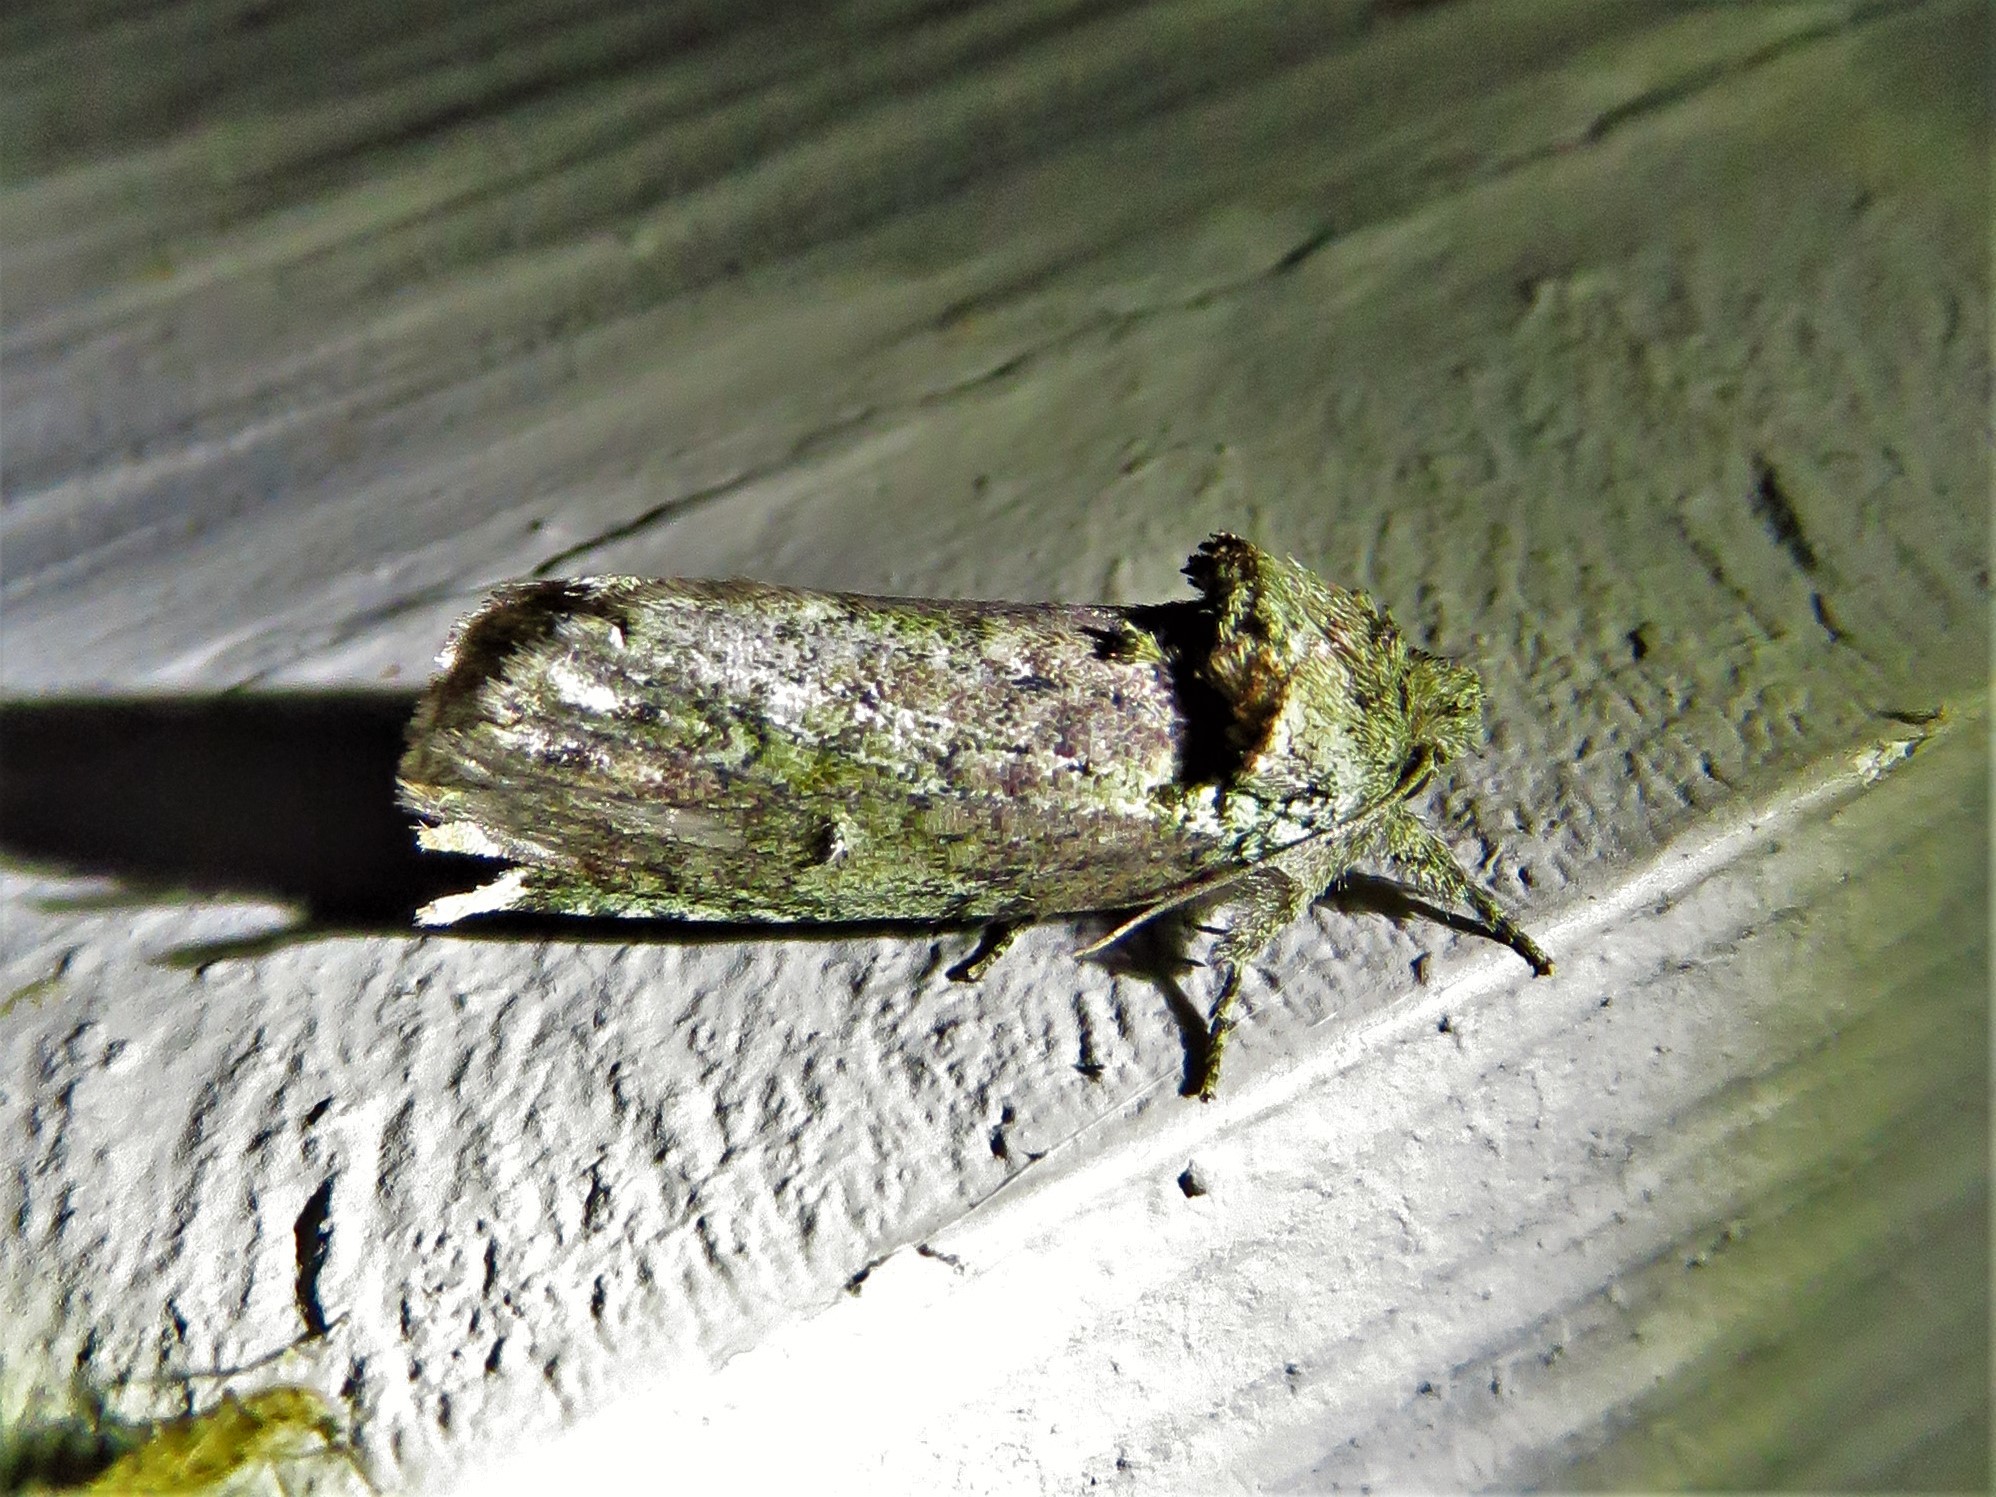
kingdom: Animalia
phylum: Arthropoda
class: Insecta
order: Lepidoptera
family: Notodontidae
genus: Schizura
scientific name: Schizura
